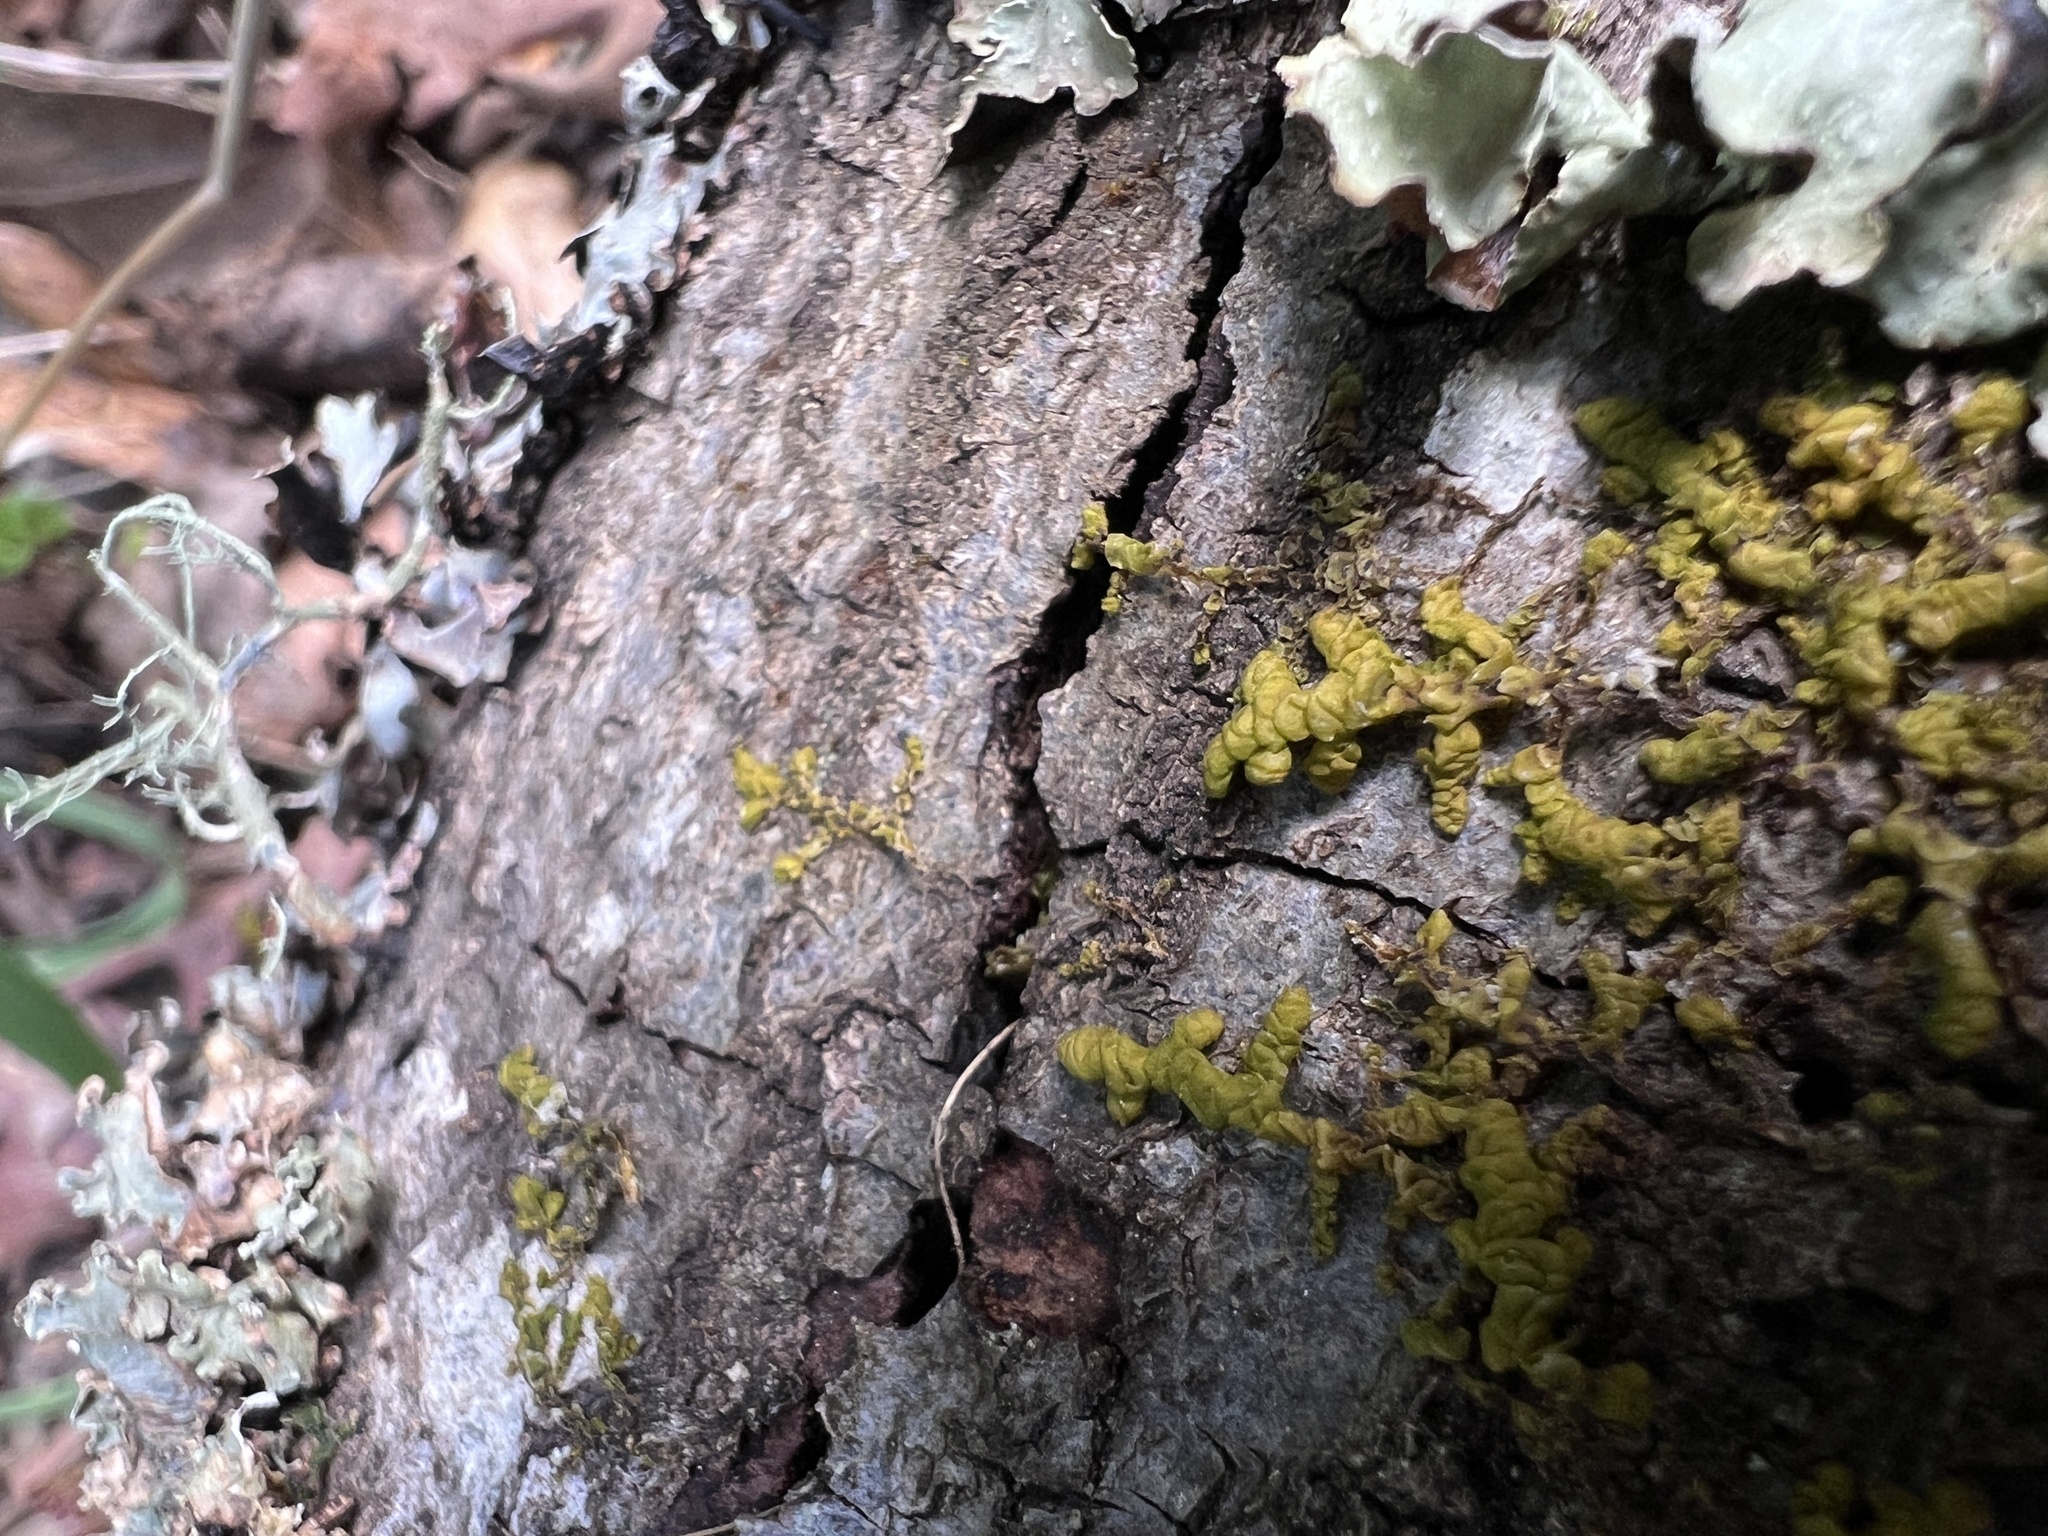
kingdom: Plantae
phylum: Marchantiophyta
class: Jungermanniopsida
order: Porellales
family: Porellaceae
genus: Porella
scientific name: Porella bolanderi
